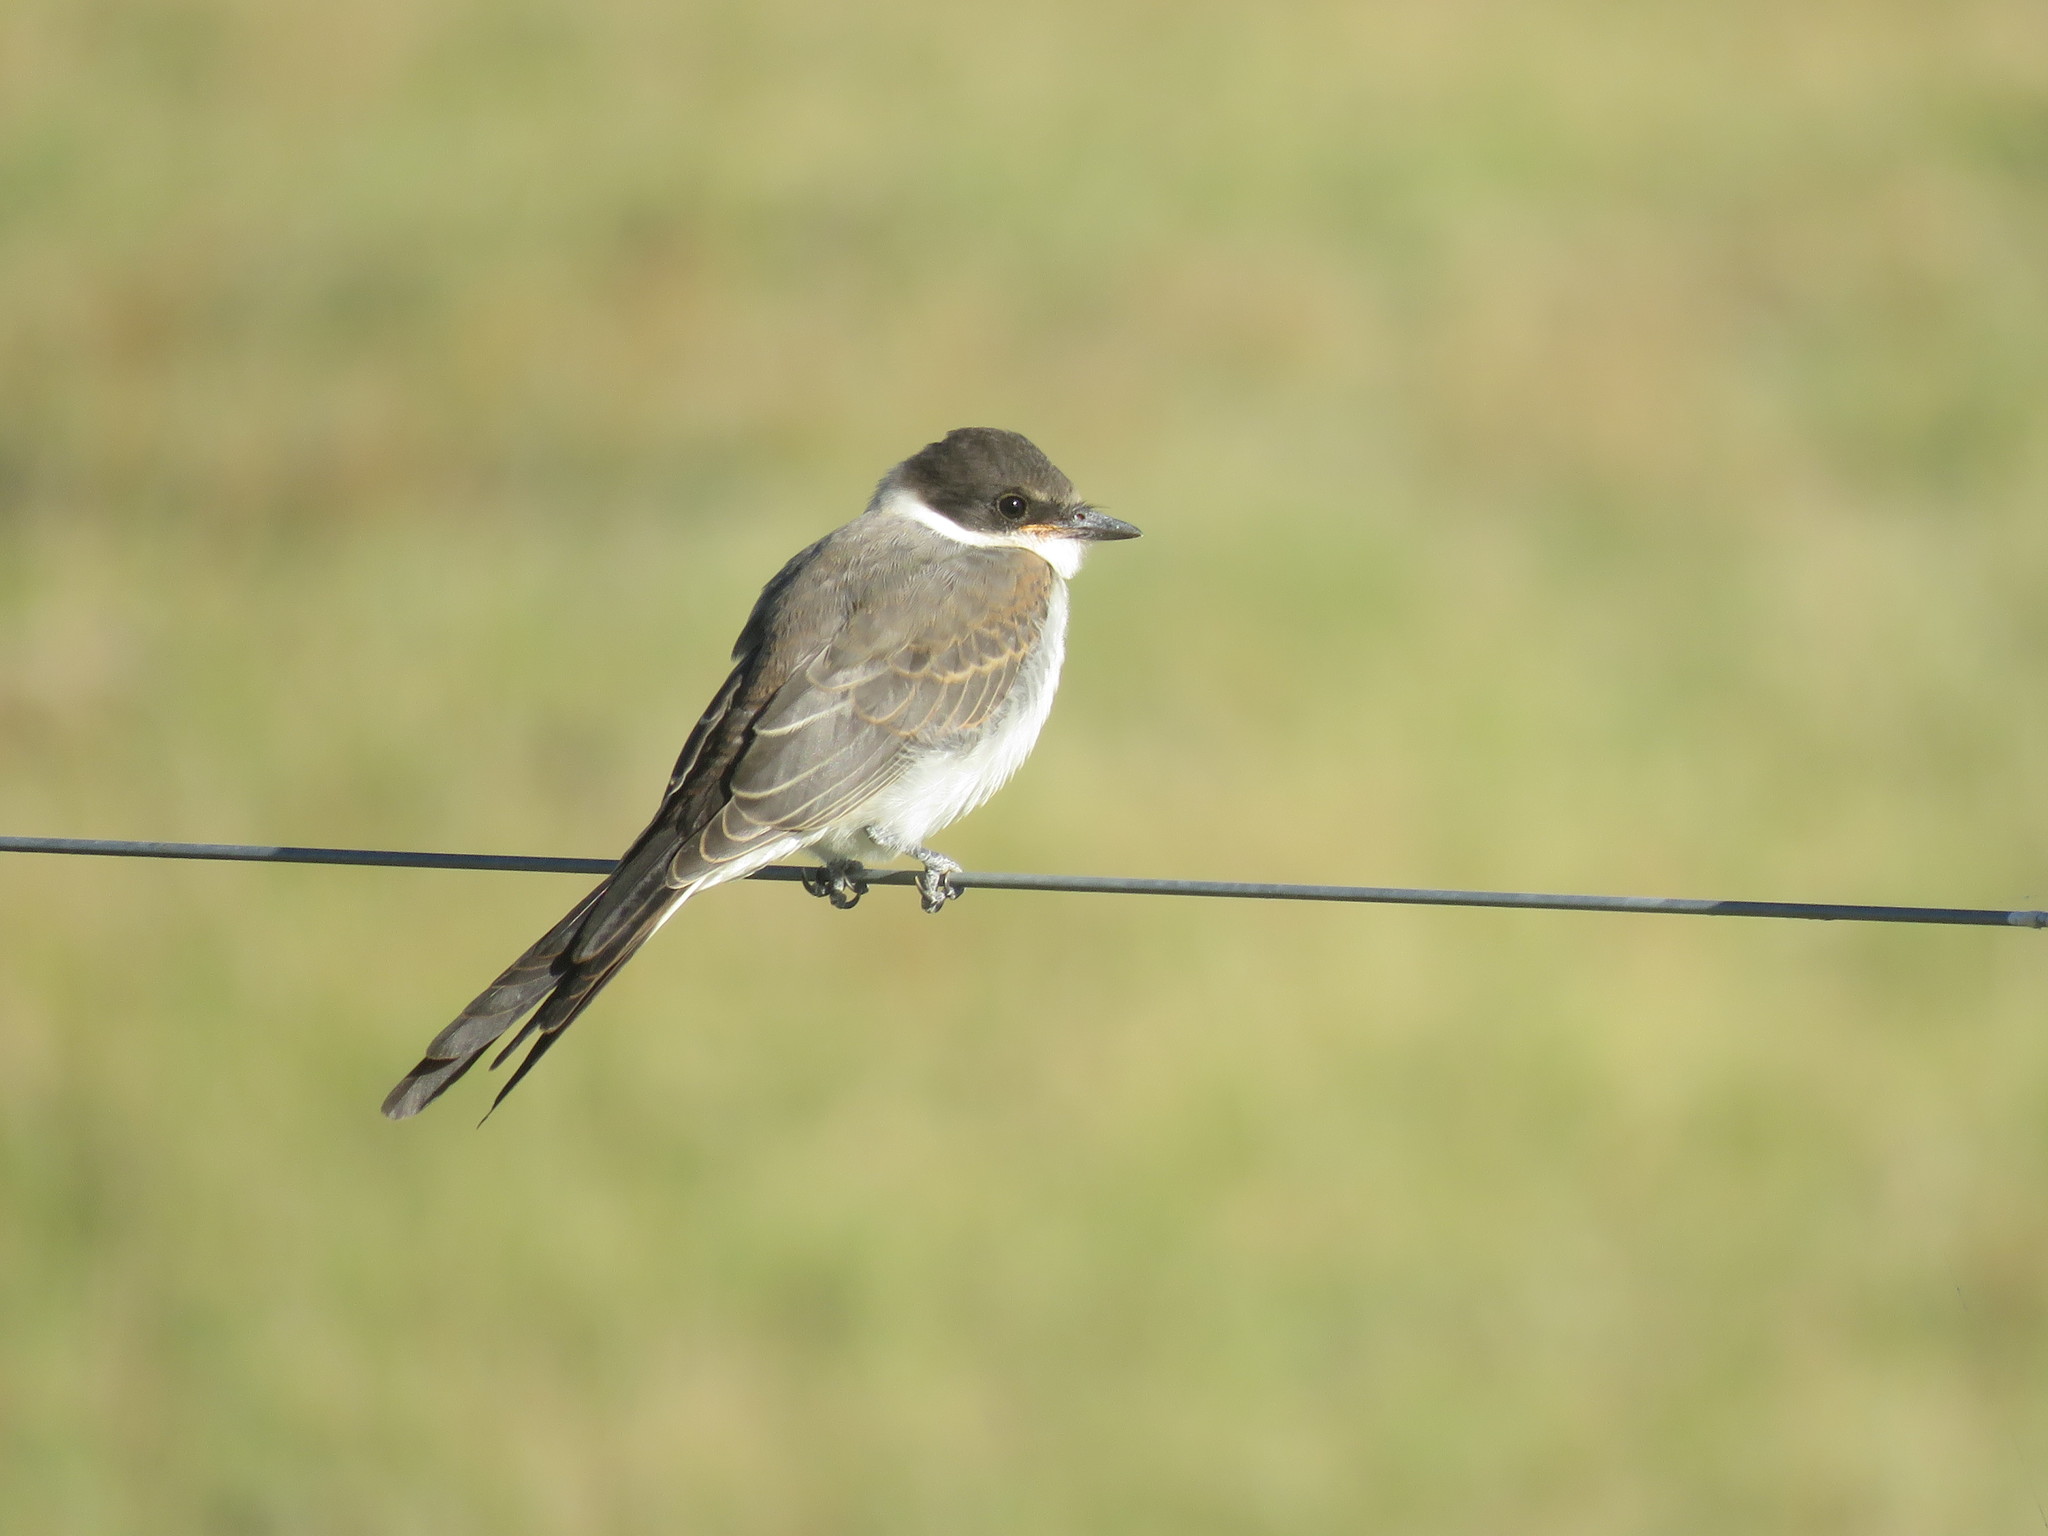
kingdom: Animalia
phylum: Chordata
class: Aves
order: Passeriformes
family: Tyrannidae
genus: Tyrannus
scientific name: Tyrannus savana
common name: Fork-tailed flycatcher
